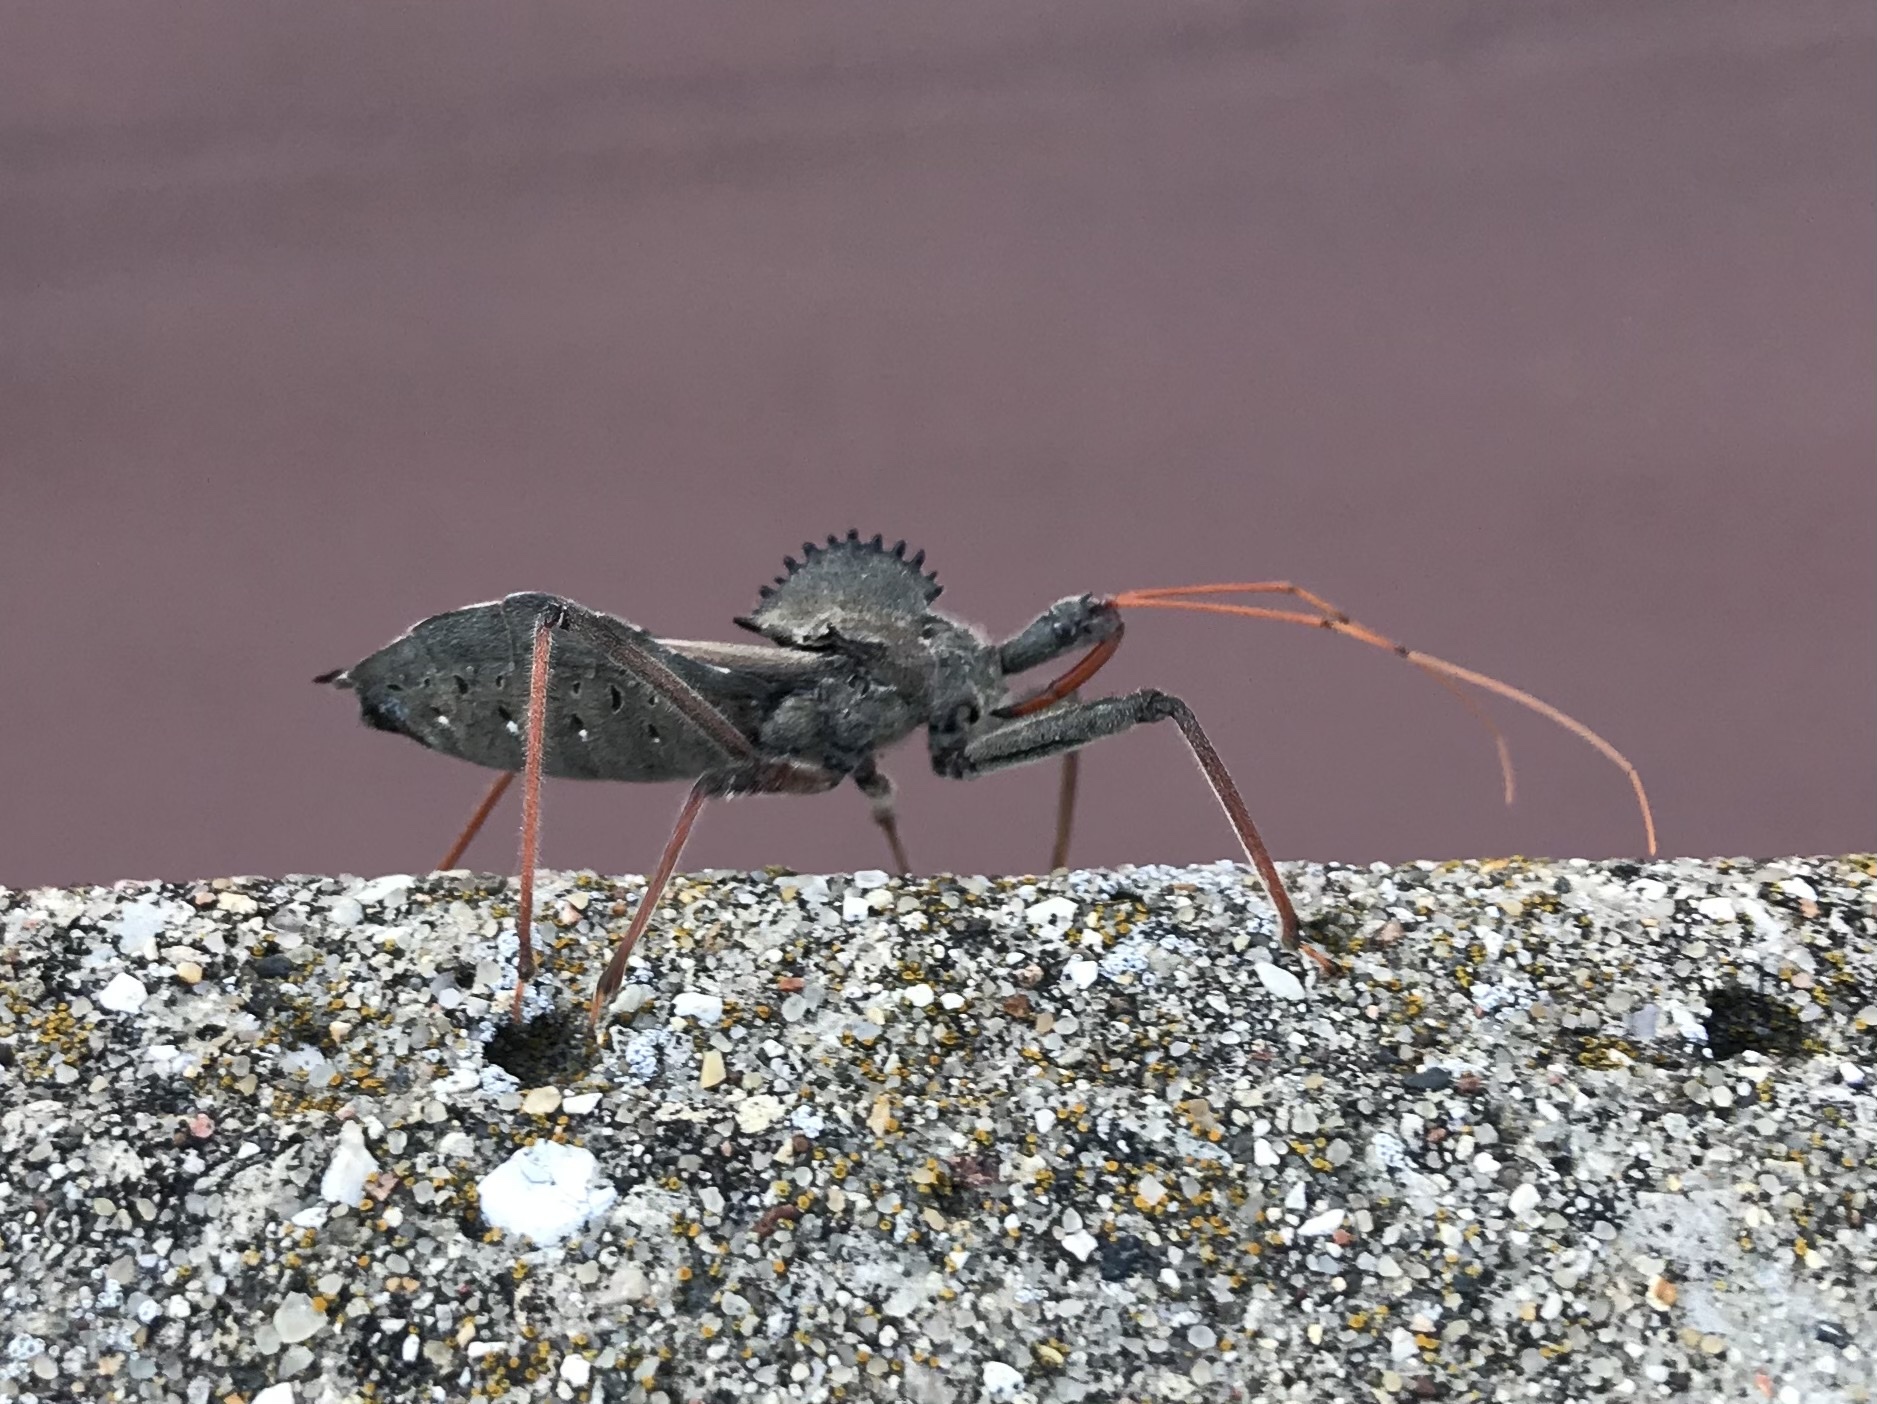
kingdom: Animalia
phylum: Arthropoda
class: Insecta
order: Hemiptera
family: Reduviidae
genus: Arilus
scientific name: Arilus cristatus
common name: North american wheel bug
